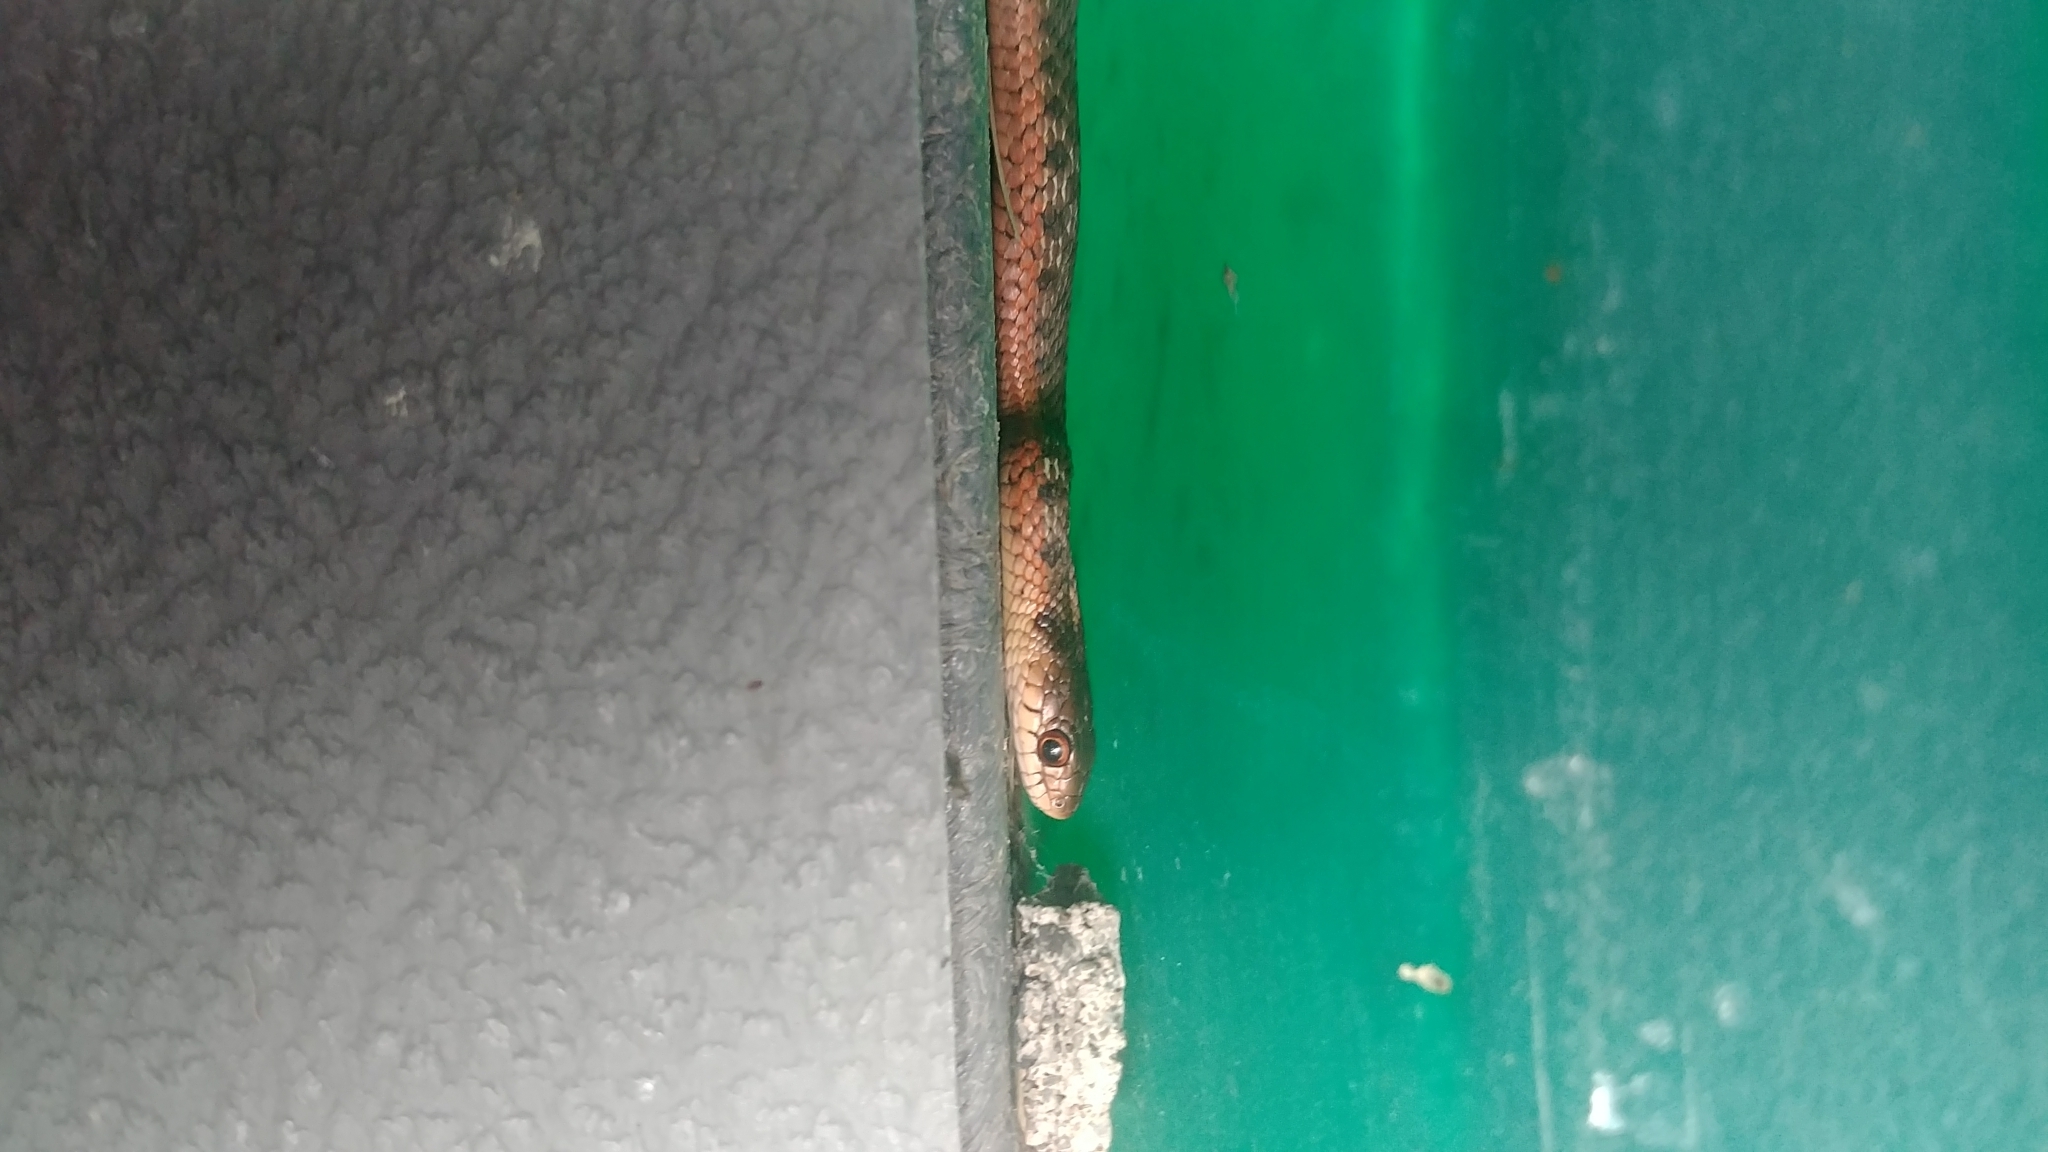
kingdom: Animalia
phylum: Chordata
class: Squamata
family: Colubridae
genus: Thamnophis
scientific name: Thamnophis sirtalis
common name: Common garter snake
